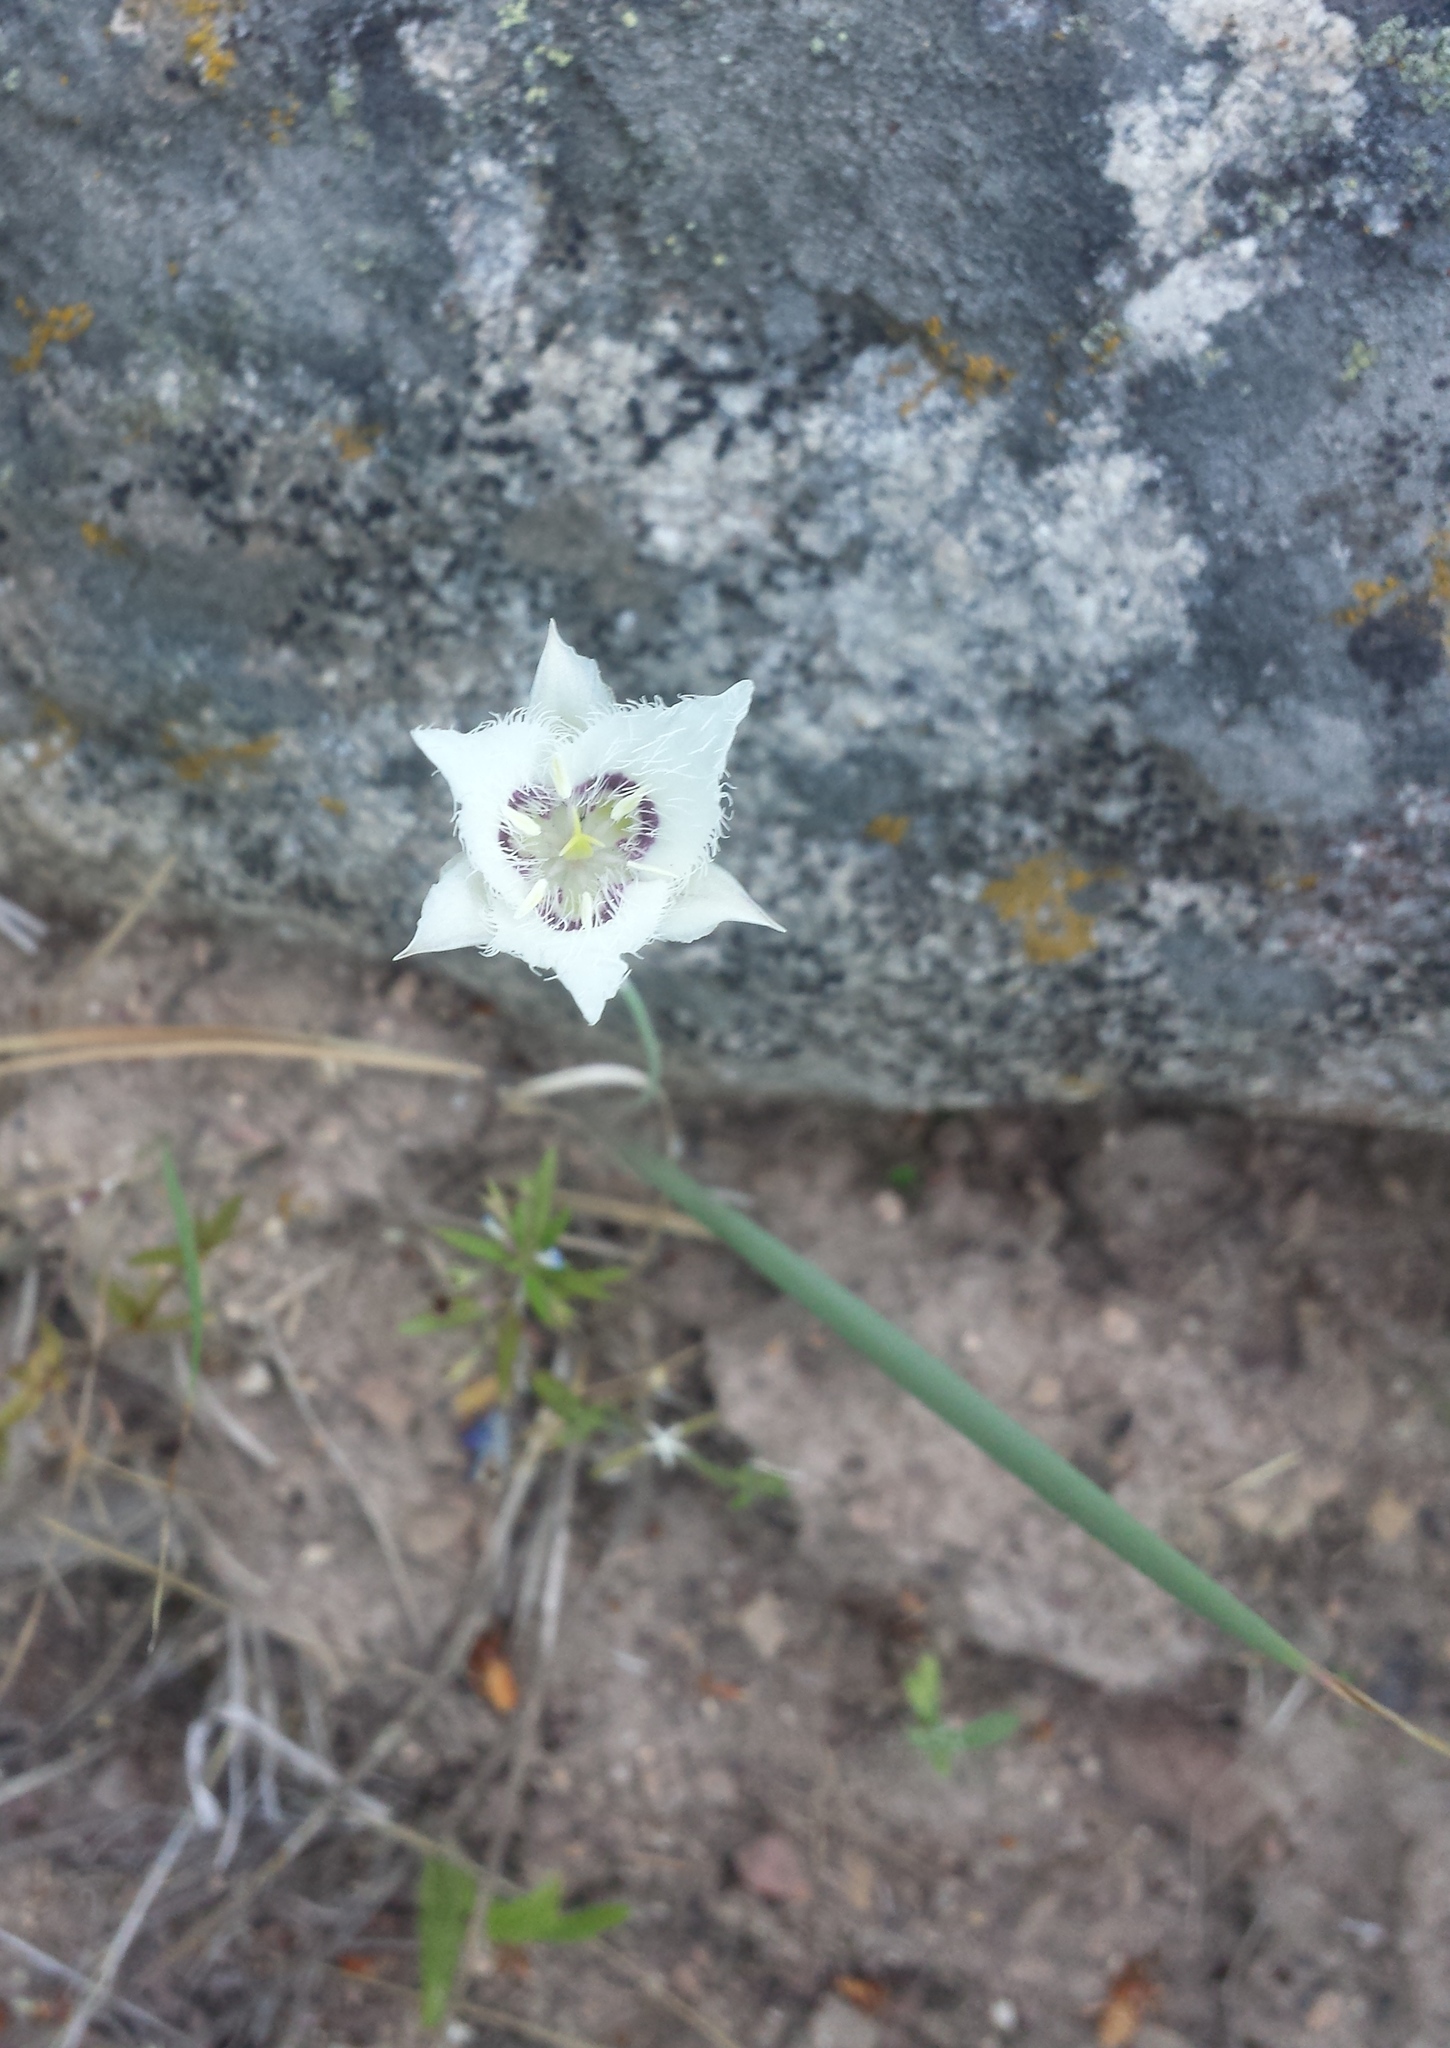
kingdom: Plantae
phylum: Tracheophyta
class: Liliopsida
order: Liliales
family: Liliaceae
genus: Calochortus
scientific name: Calochortus lyallii
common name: Lyall's mariposa lily
